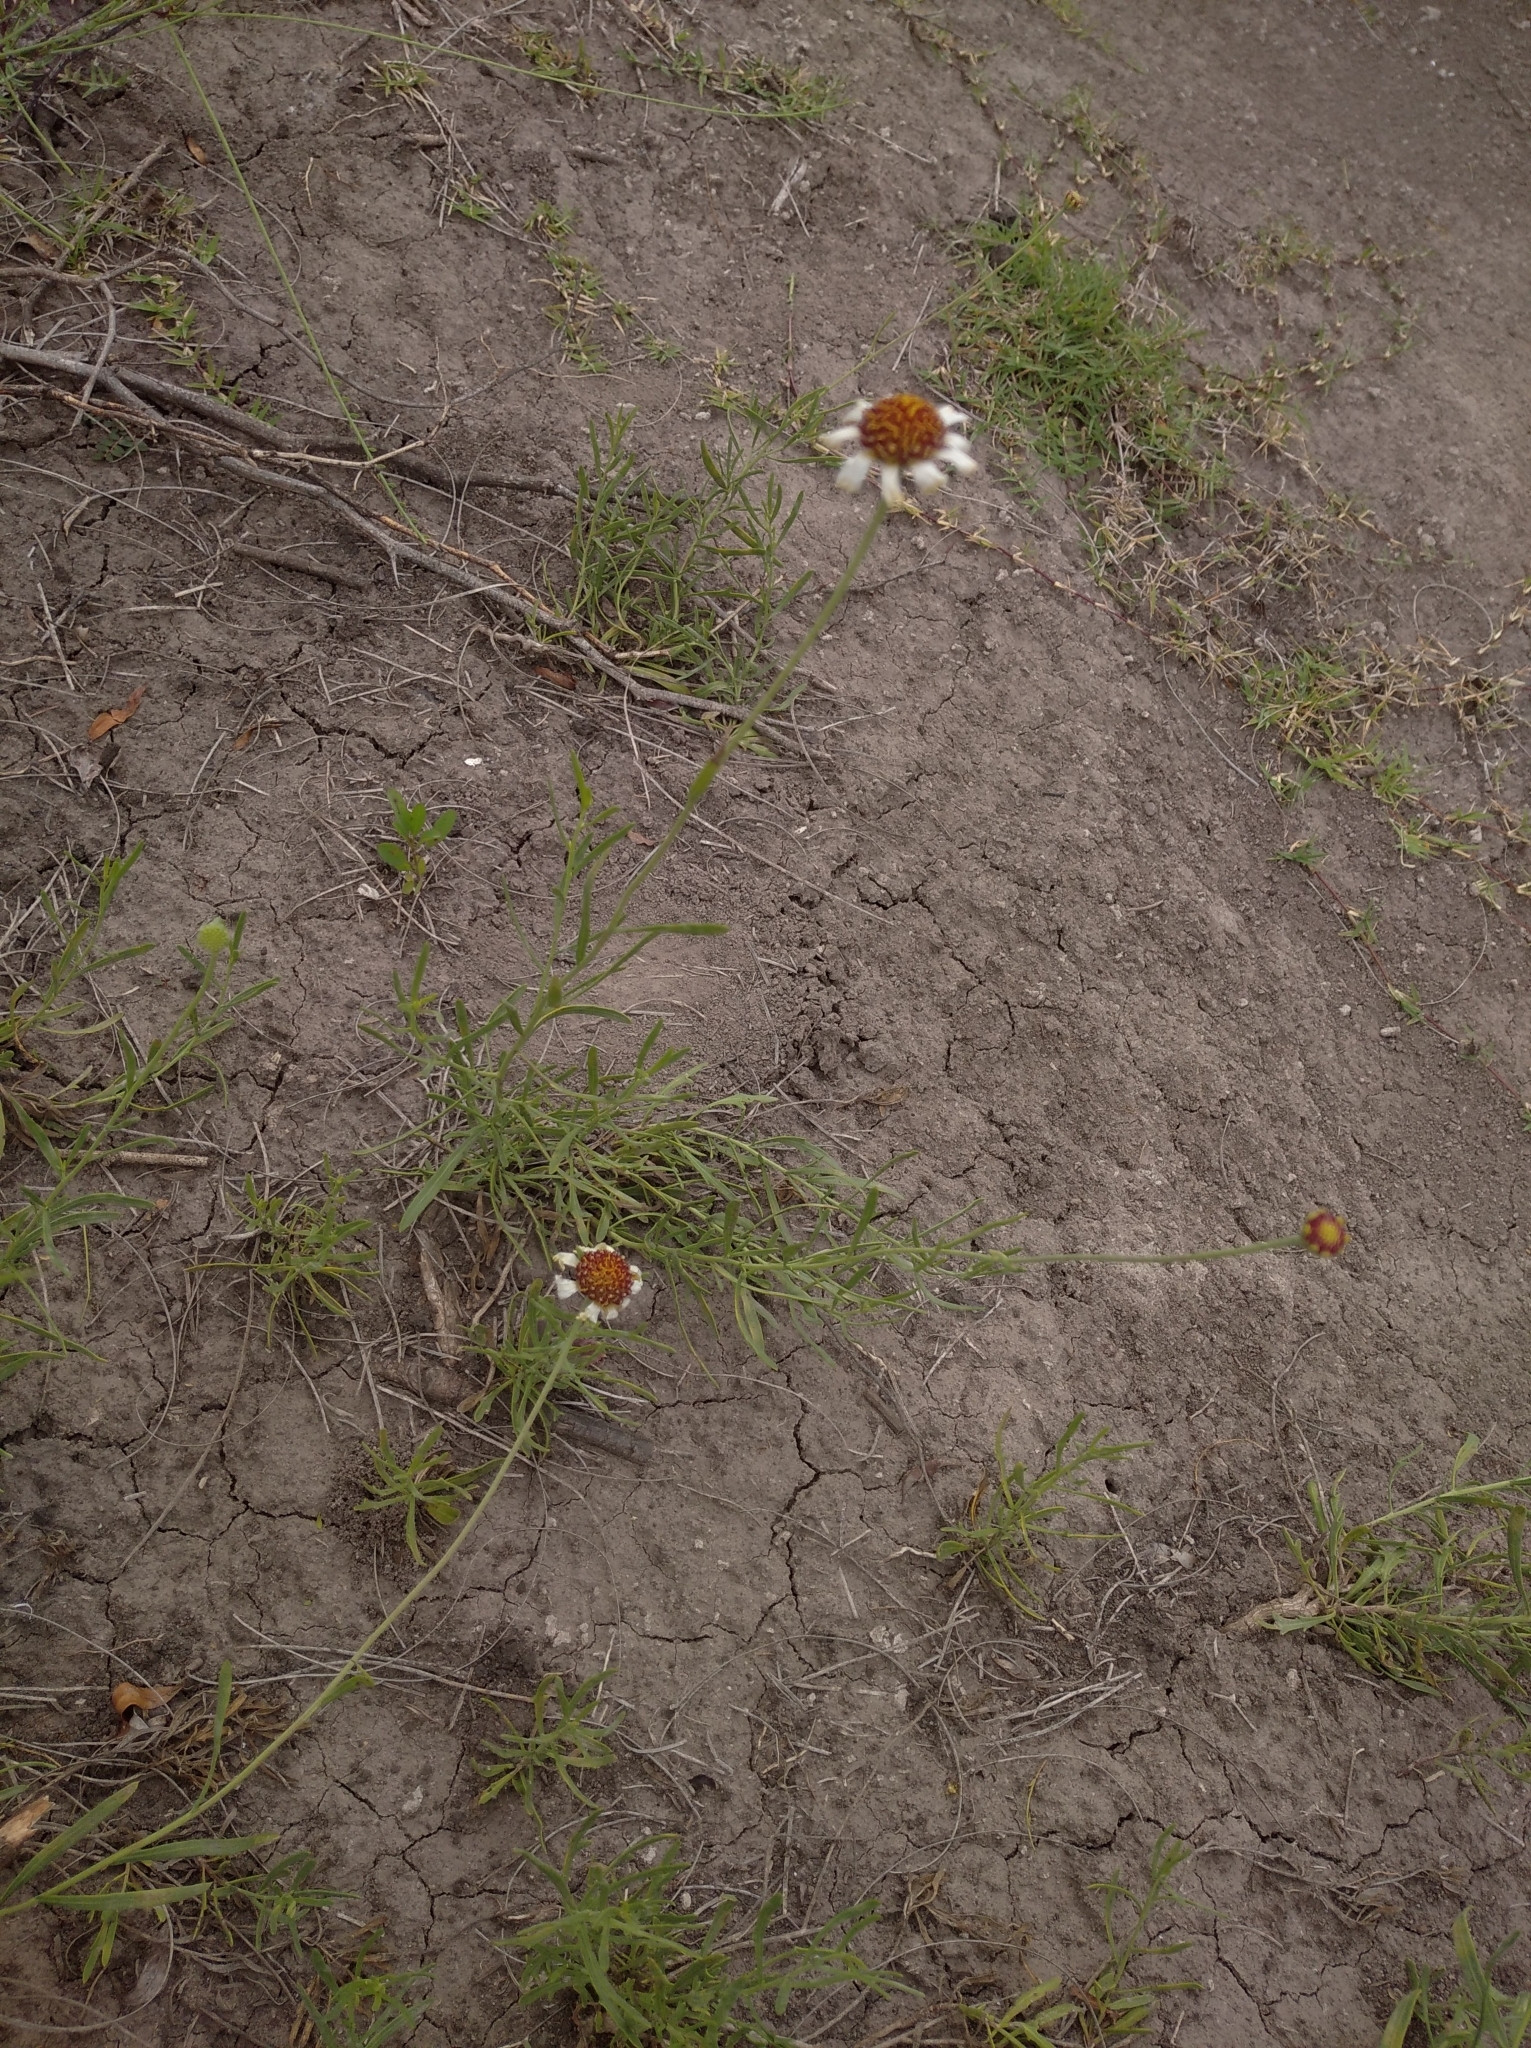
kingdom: Plantae
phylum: Tracheophyta
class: Magnoliopsida
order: Asterales
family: Asteraceae
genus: Helenium
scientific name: Helenium uniflorum
